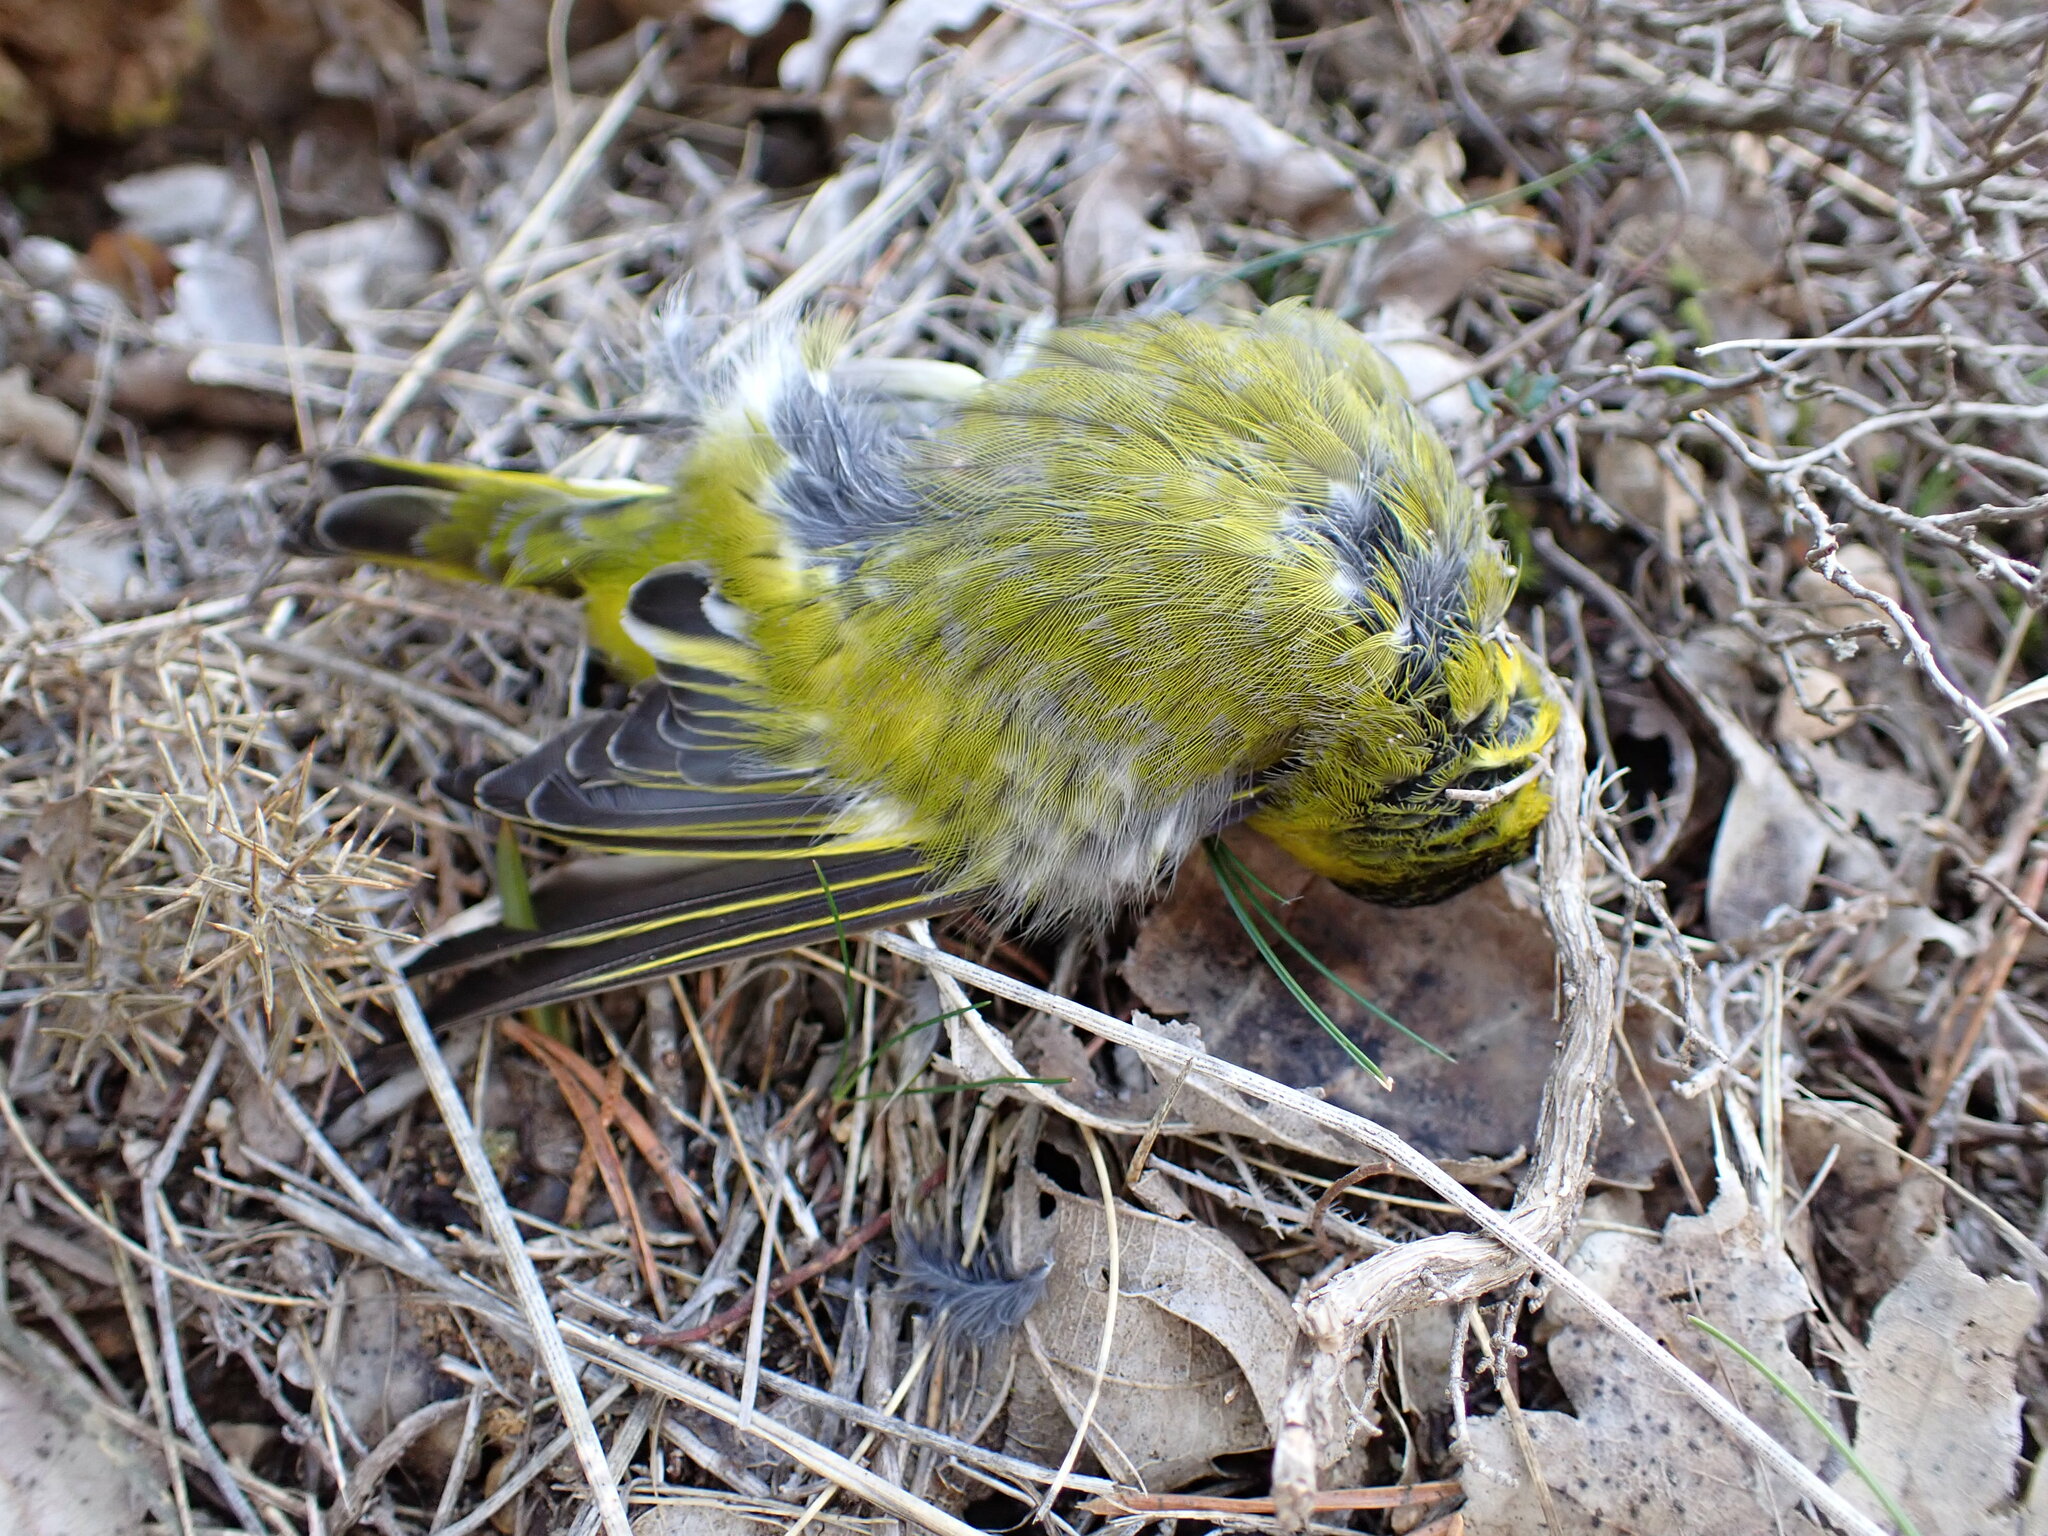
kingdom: Animalia
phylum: Chordata
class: Aves
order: Passeriformes
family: Fringillidae
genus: Spinus
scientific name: Spinus spinus
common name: Eurasian siskin
